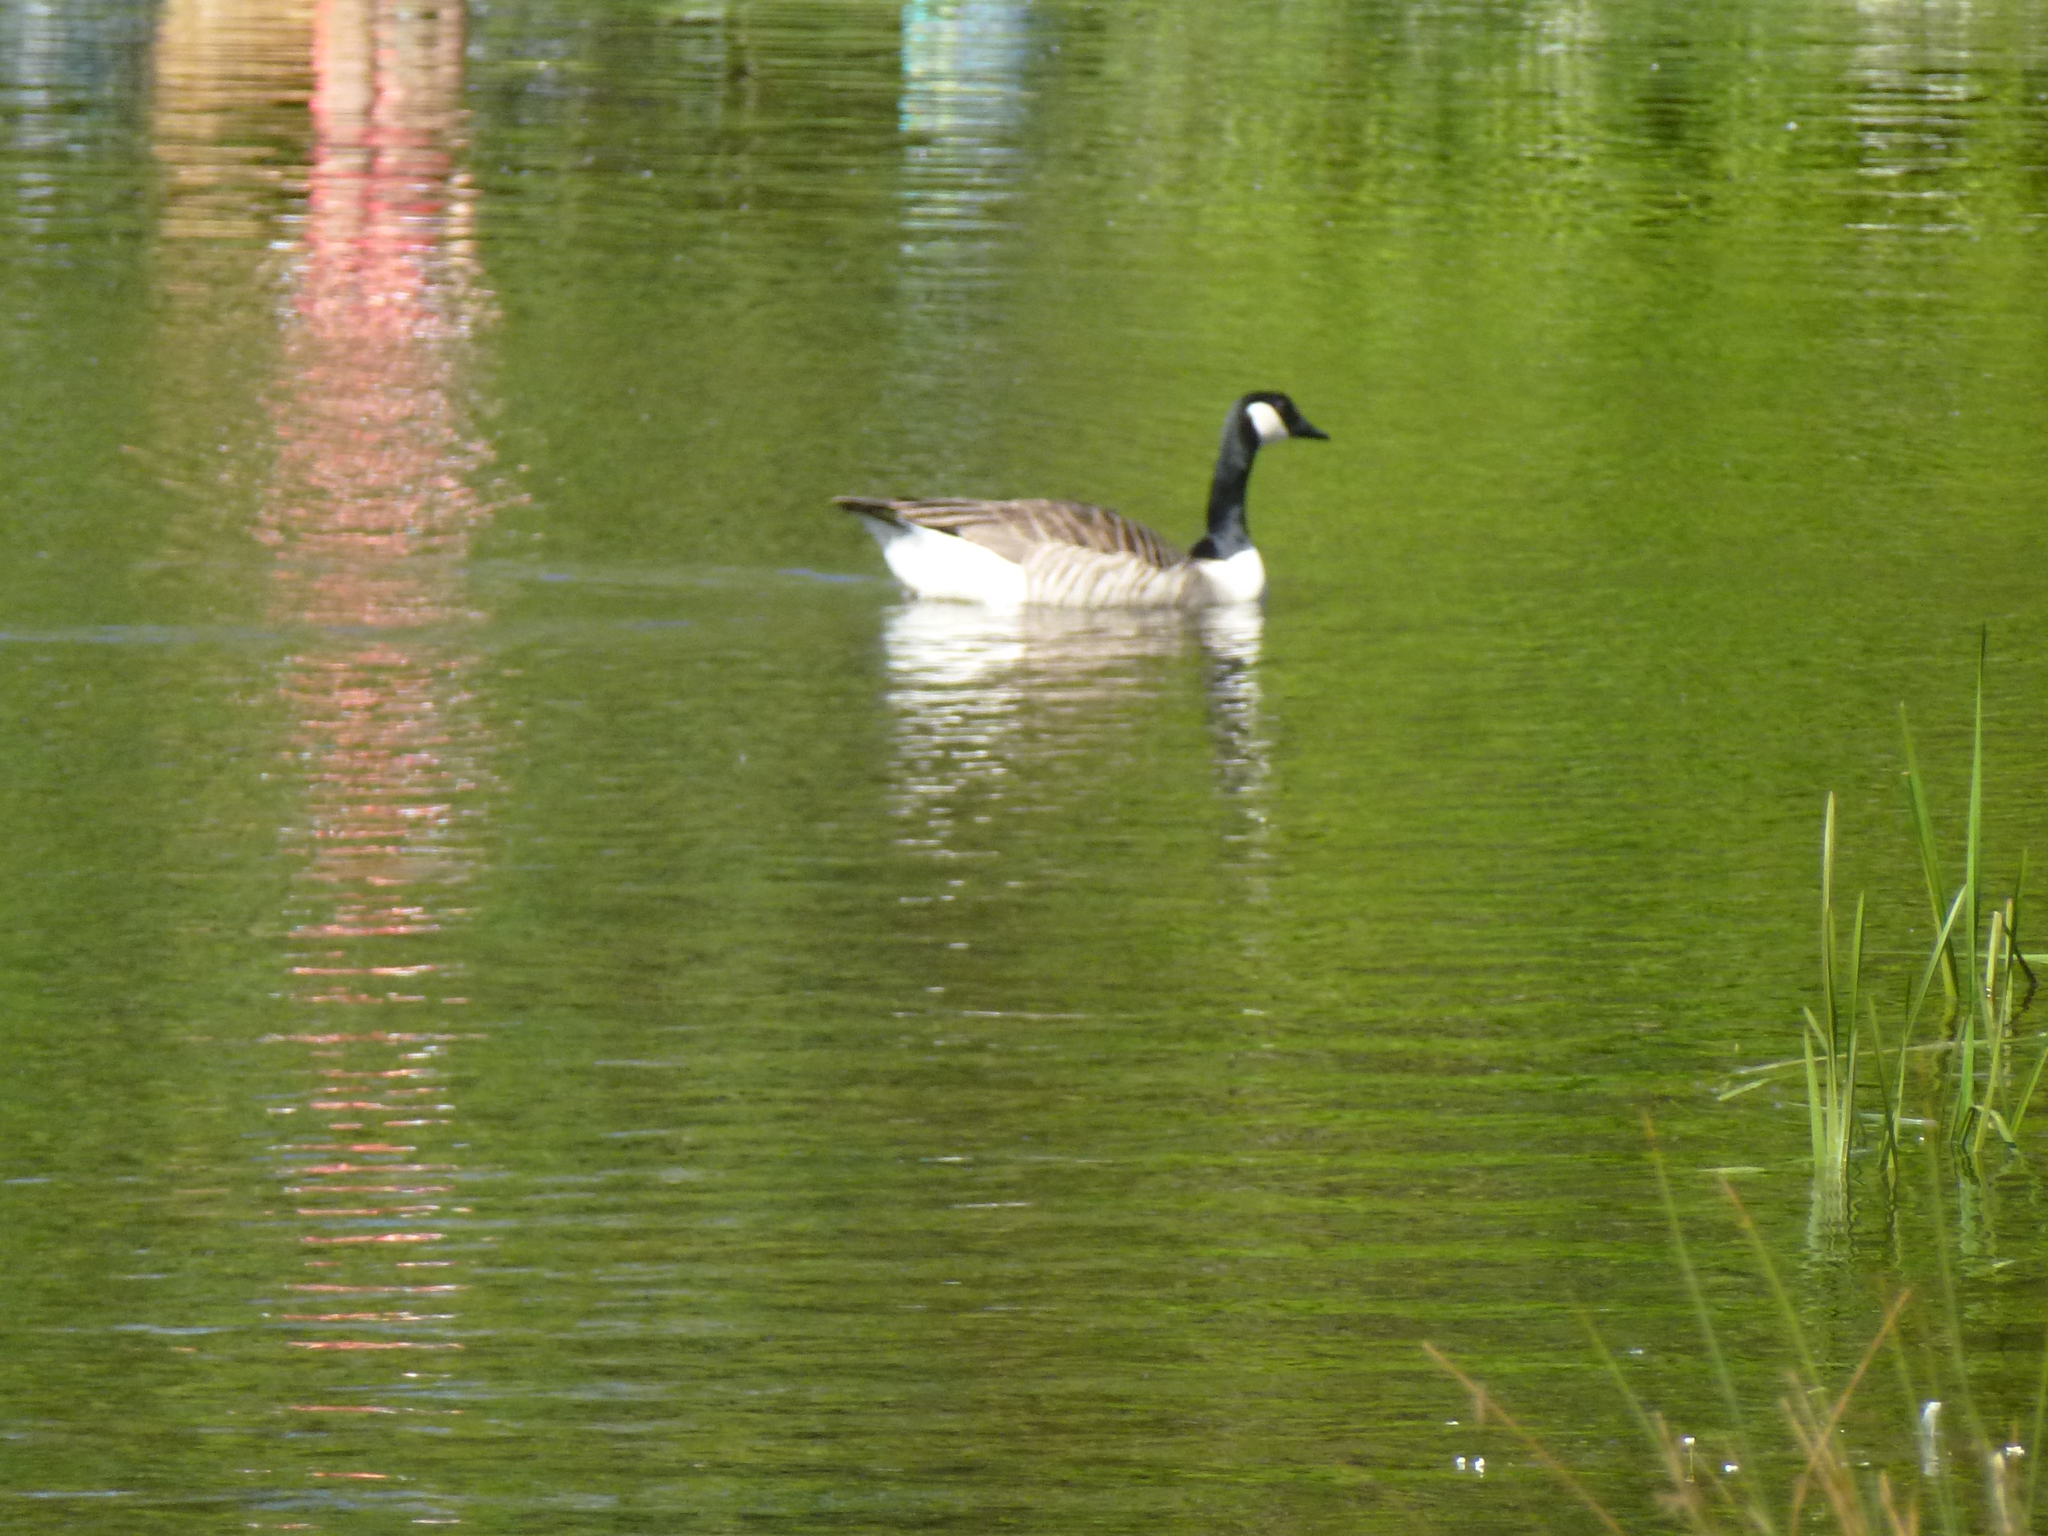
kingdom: Animalia
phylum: Chordata
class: Aves
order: Anseriformes
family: Anatidae
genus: Branta
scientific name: Branta canadensis
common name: Canada goose
